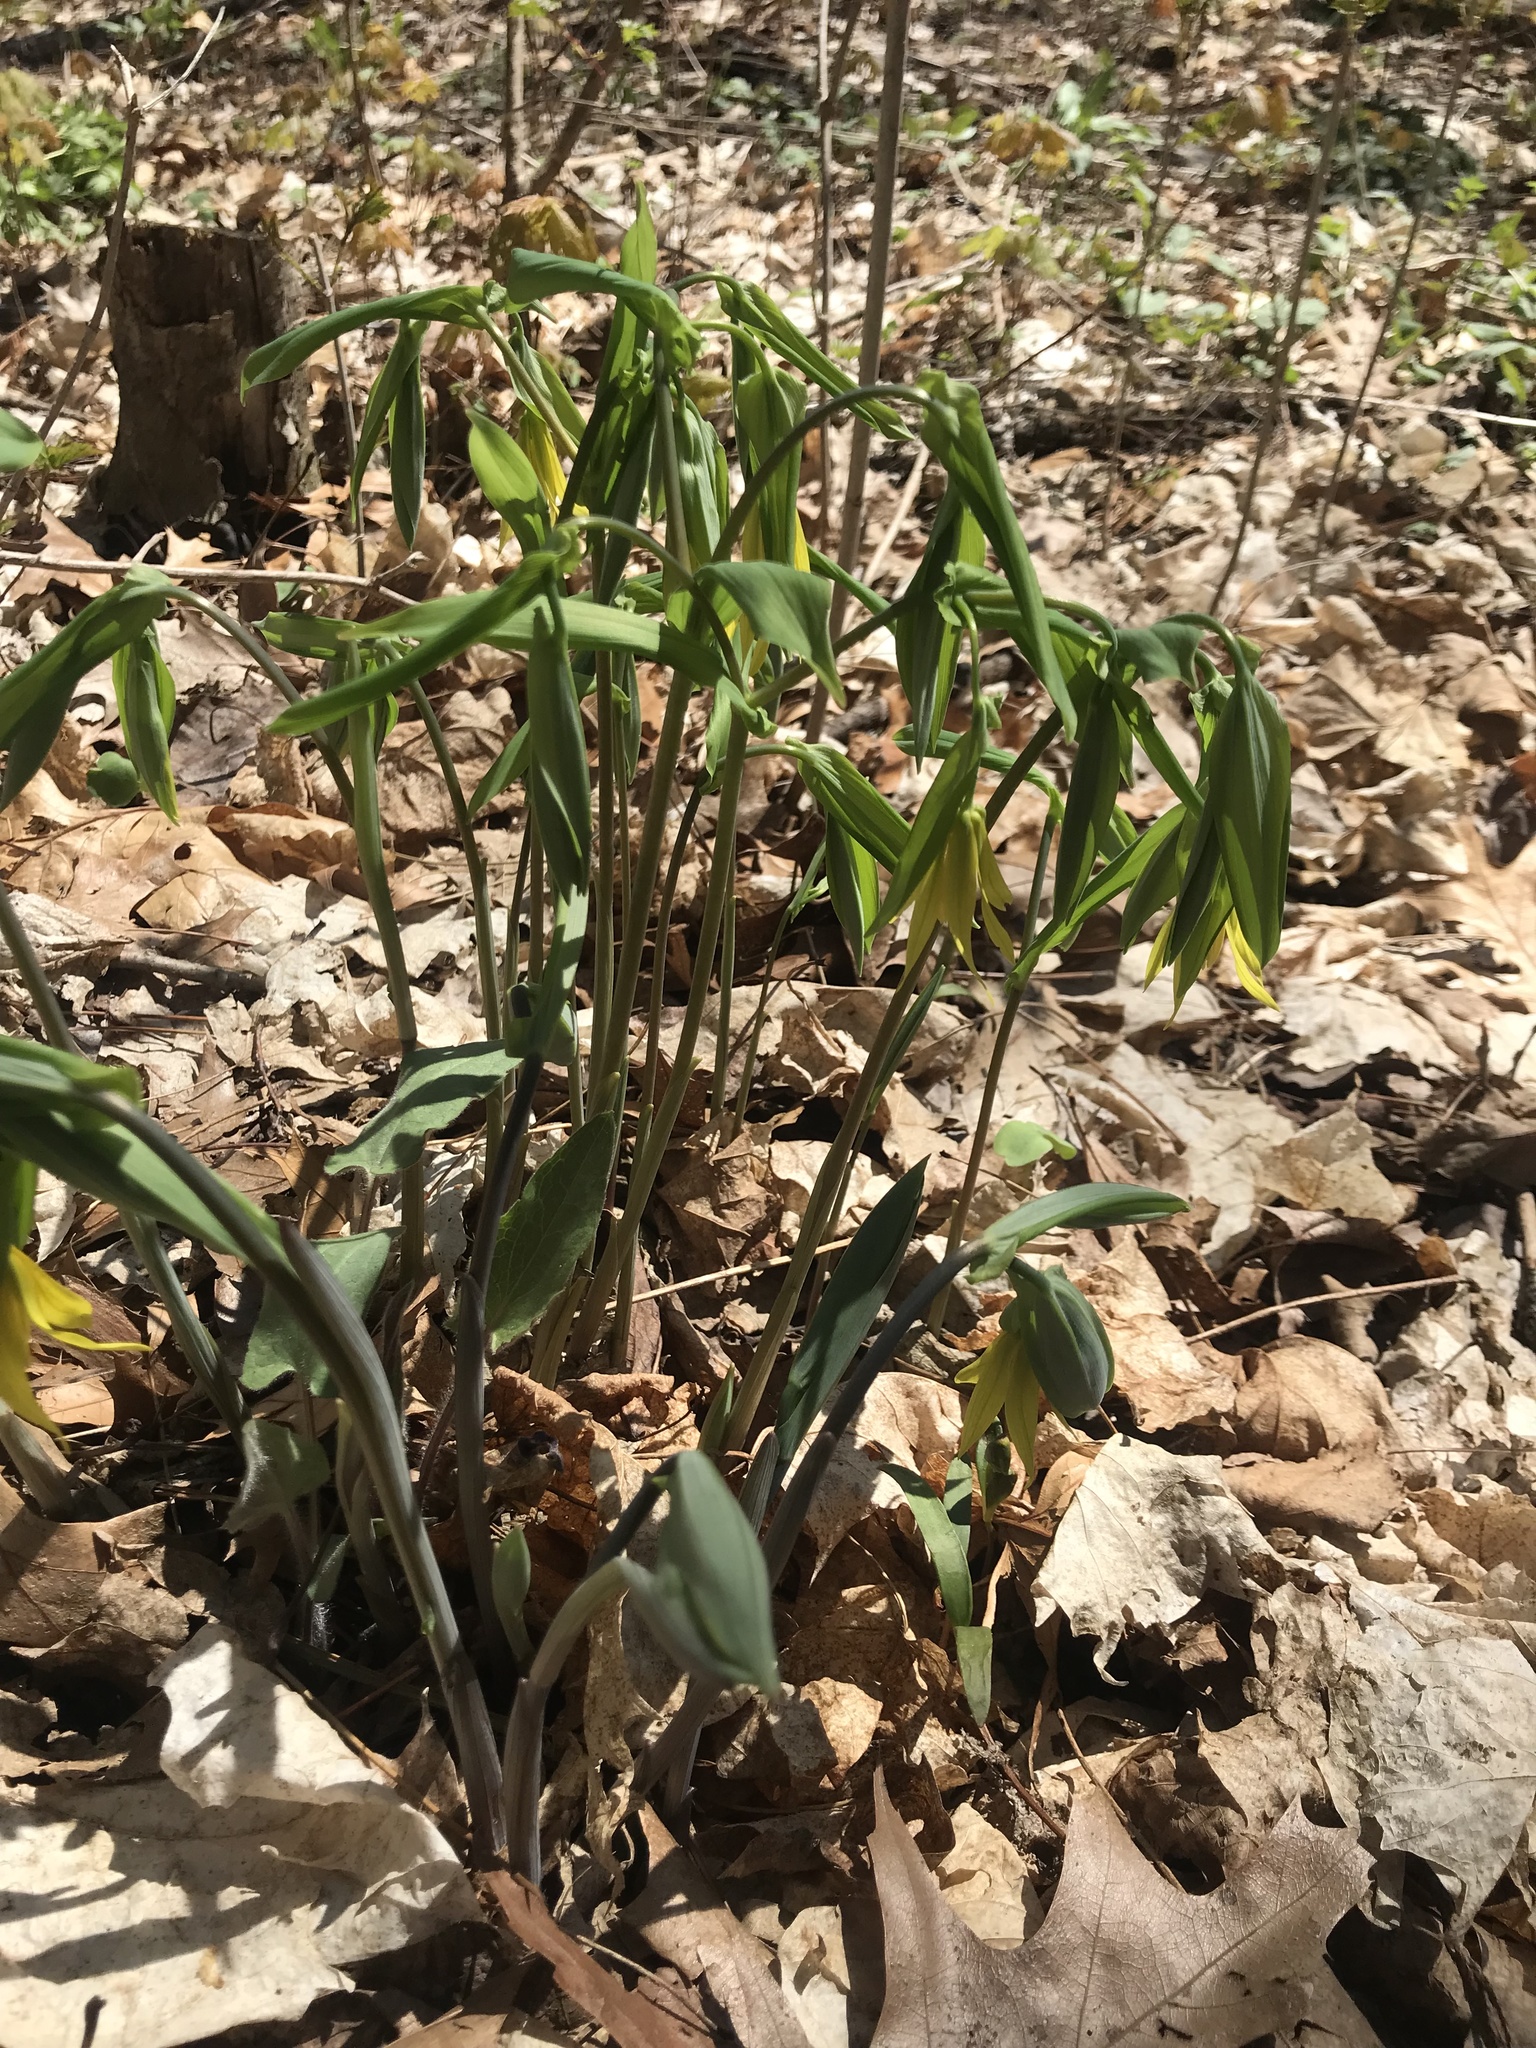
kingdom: Plantae
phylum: Tracheophyta
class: Liliopsida
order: Liliales
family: Colchicaceae
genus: Uvularia
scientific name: Uvularia grandiflora
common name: Bellwort
